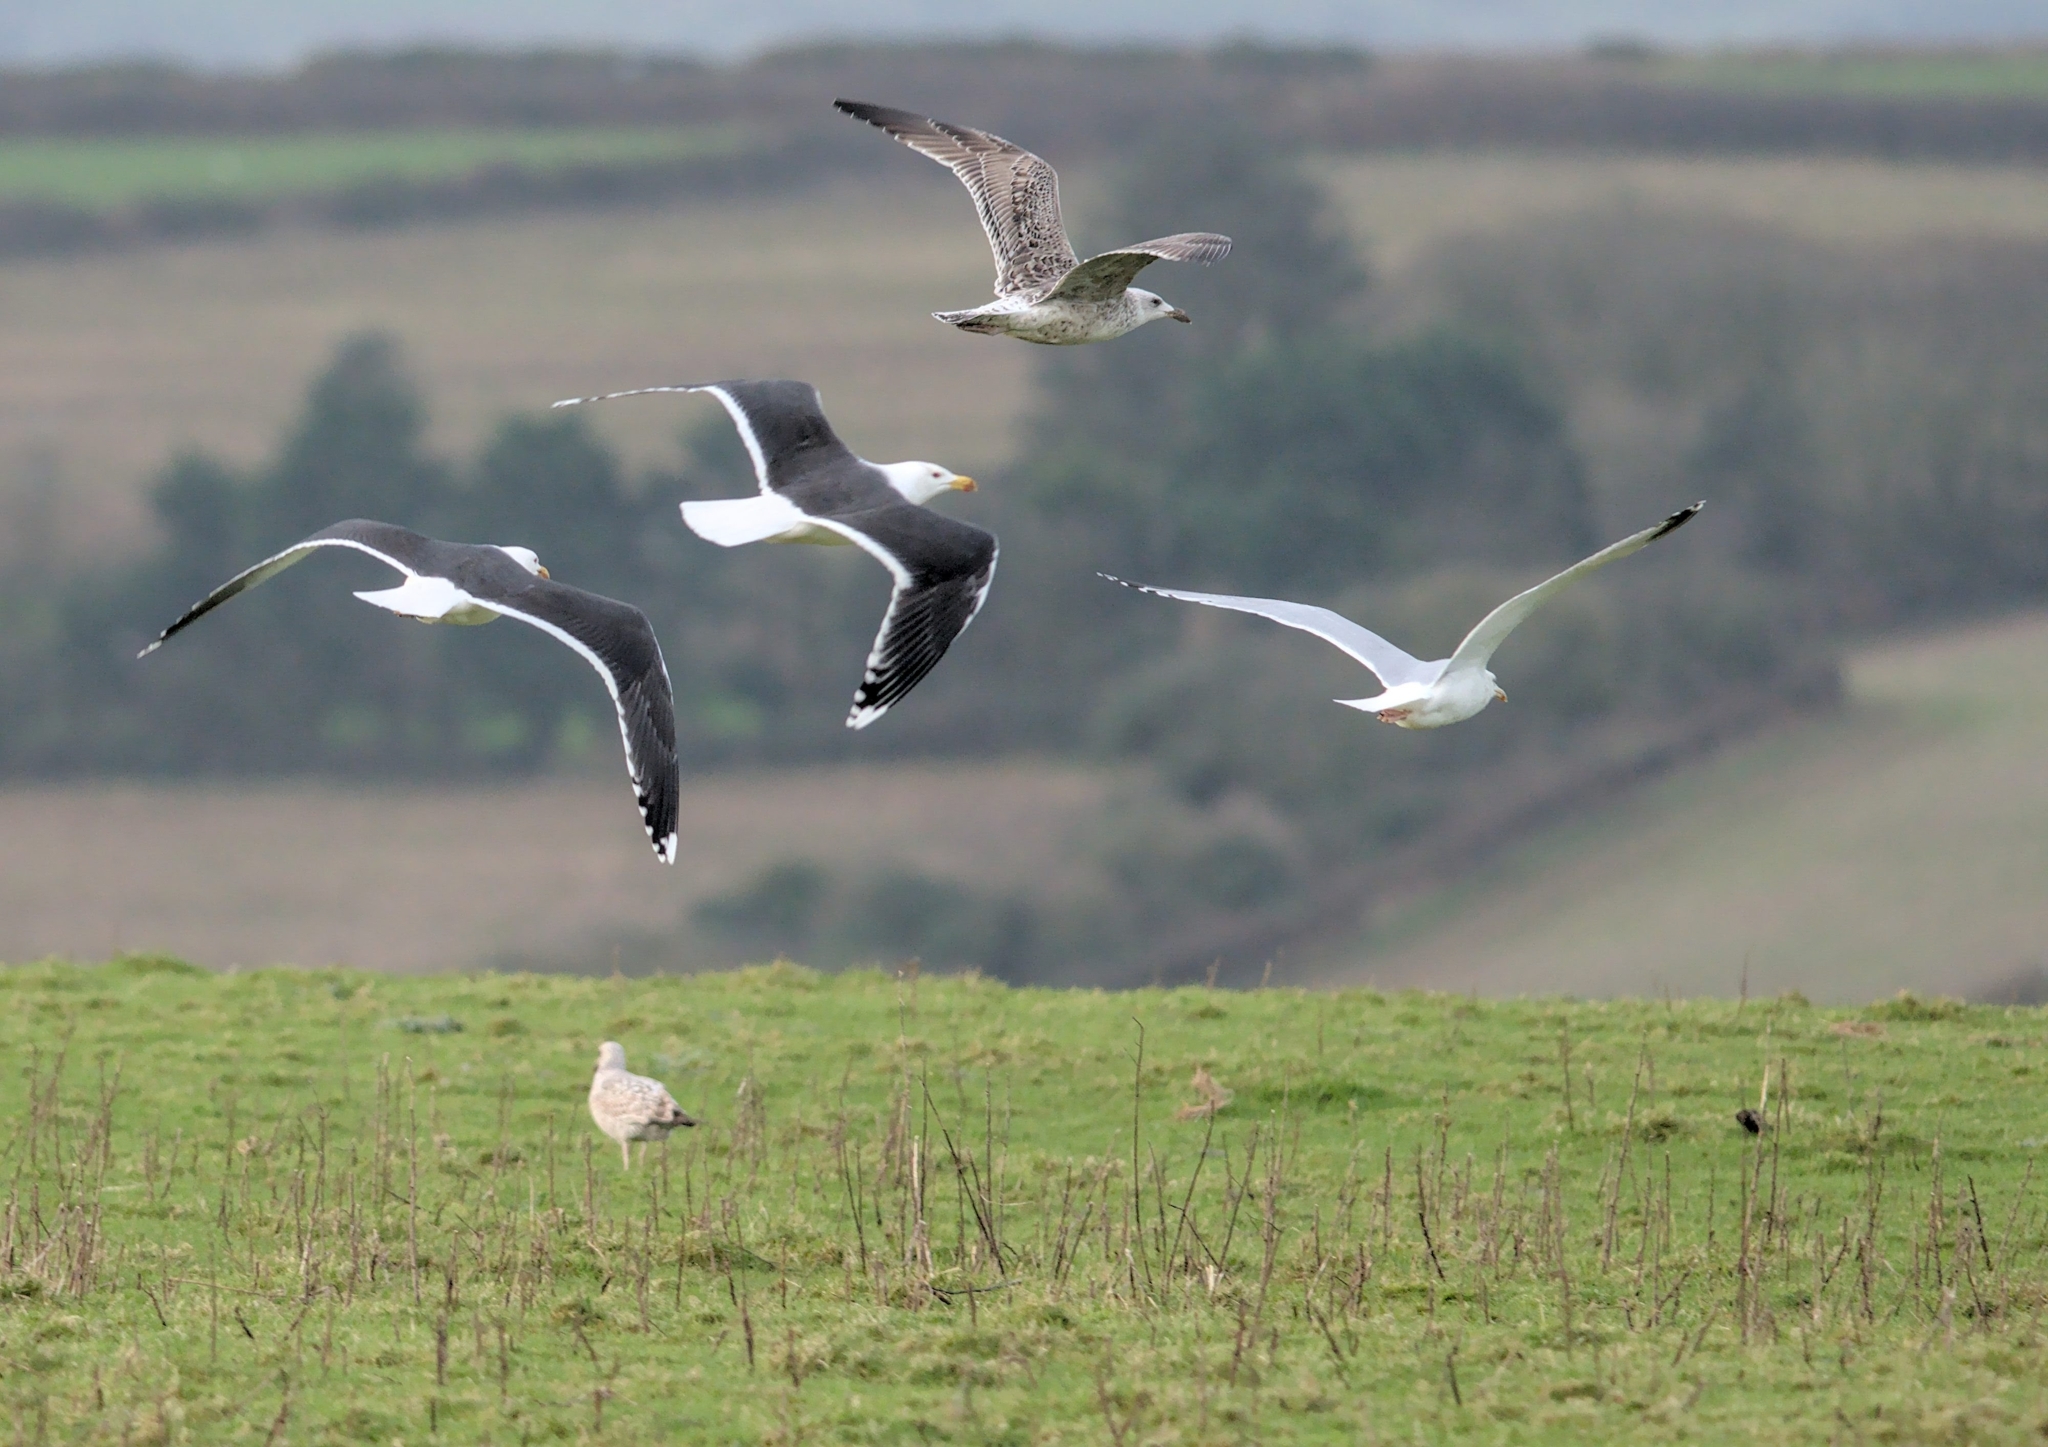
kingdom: Animalia
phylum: Chordata
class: Aves
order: Charadriiformes
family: Laridae
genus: Larus
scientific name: Larus marinus
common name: Great black-backed gull
